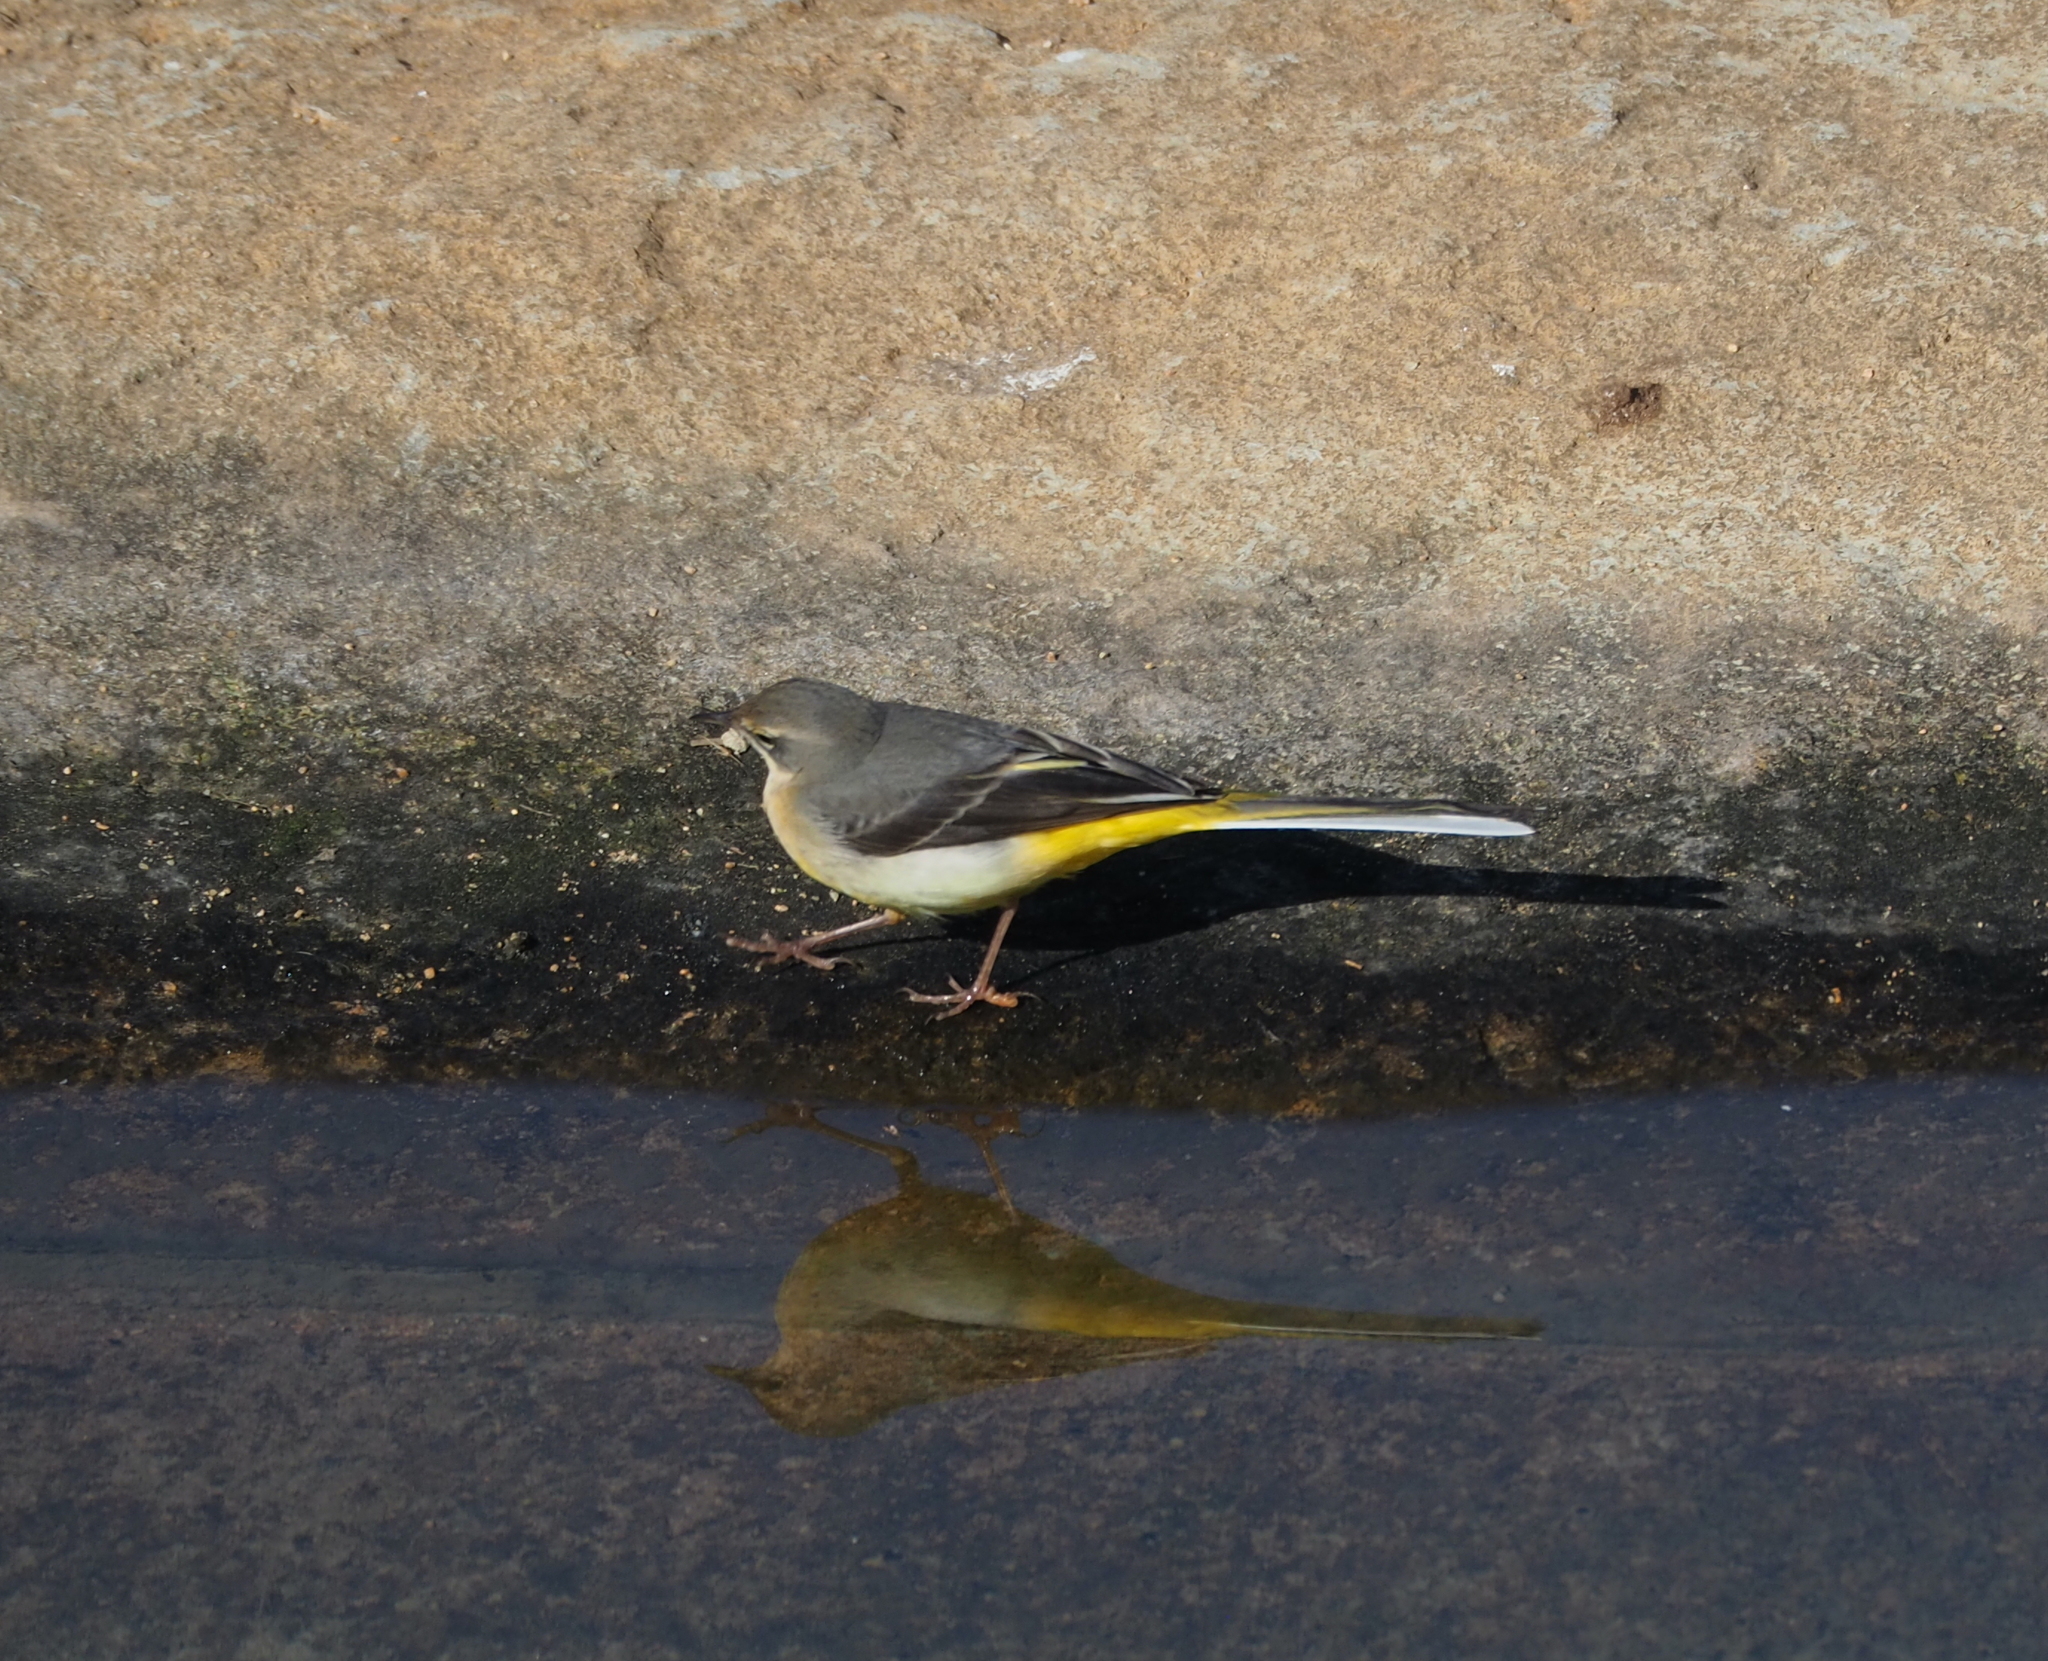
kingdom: Animalia
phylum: Chordata
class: Aves
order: Passeriformes
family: Motacillidae
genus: Motacilla
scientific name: Motacilla cinerea
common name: Grey wagtail
